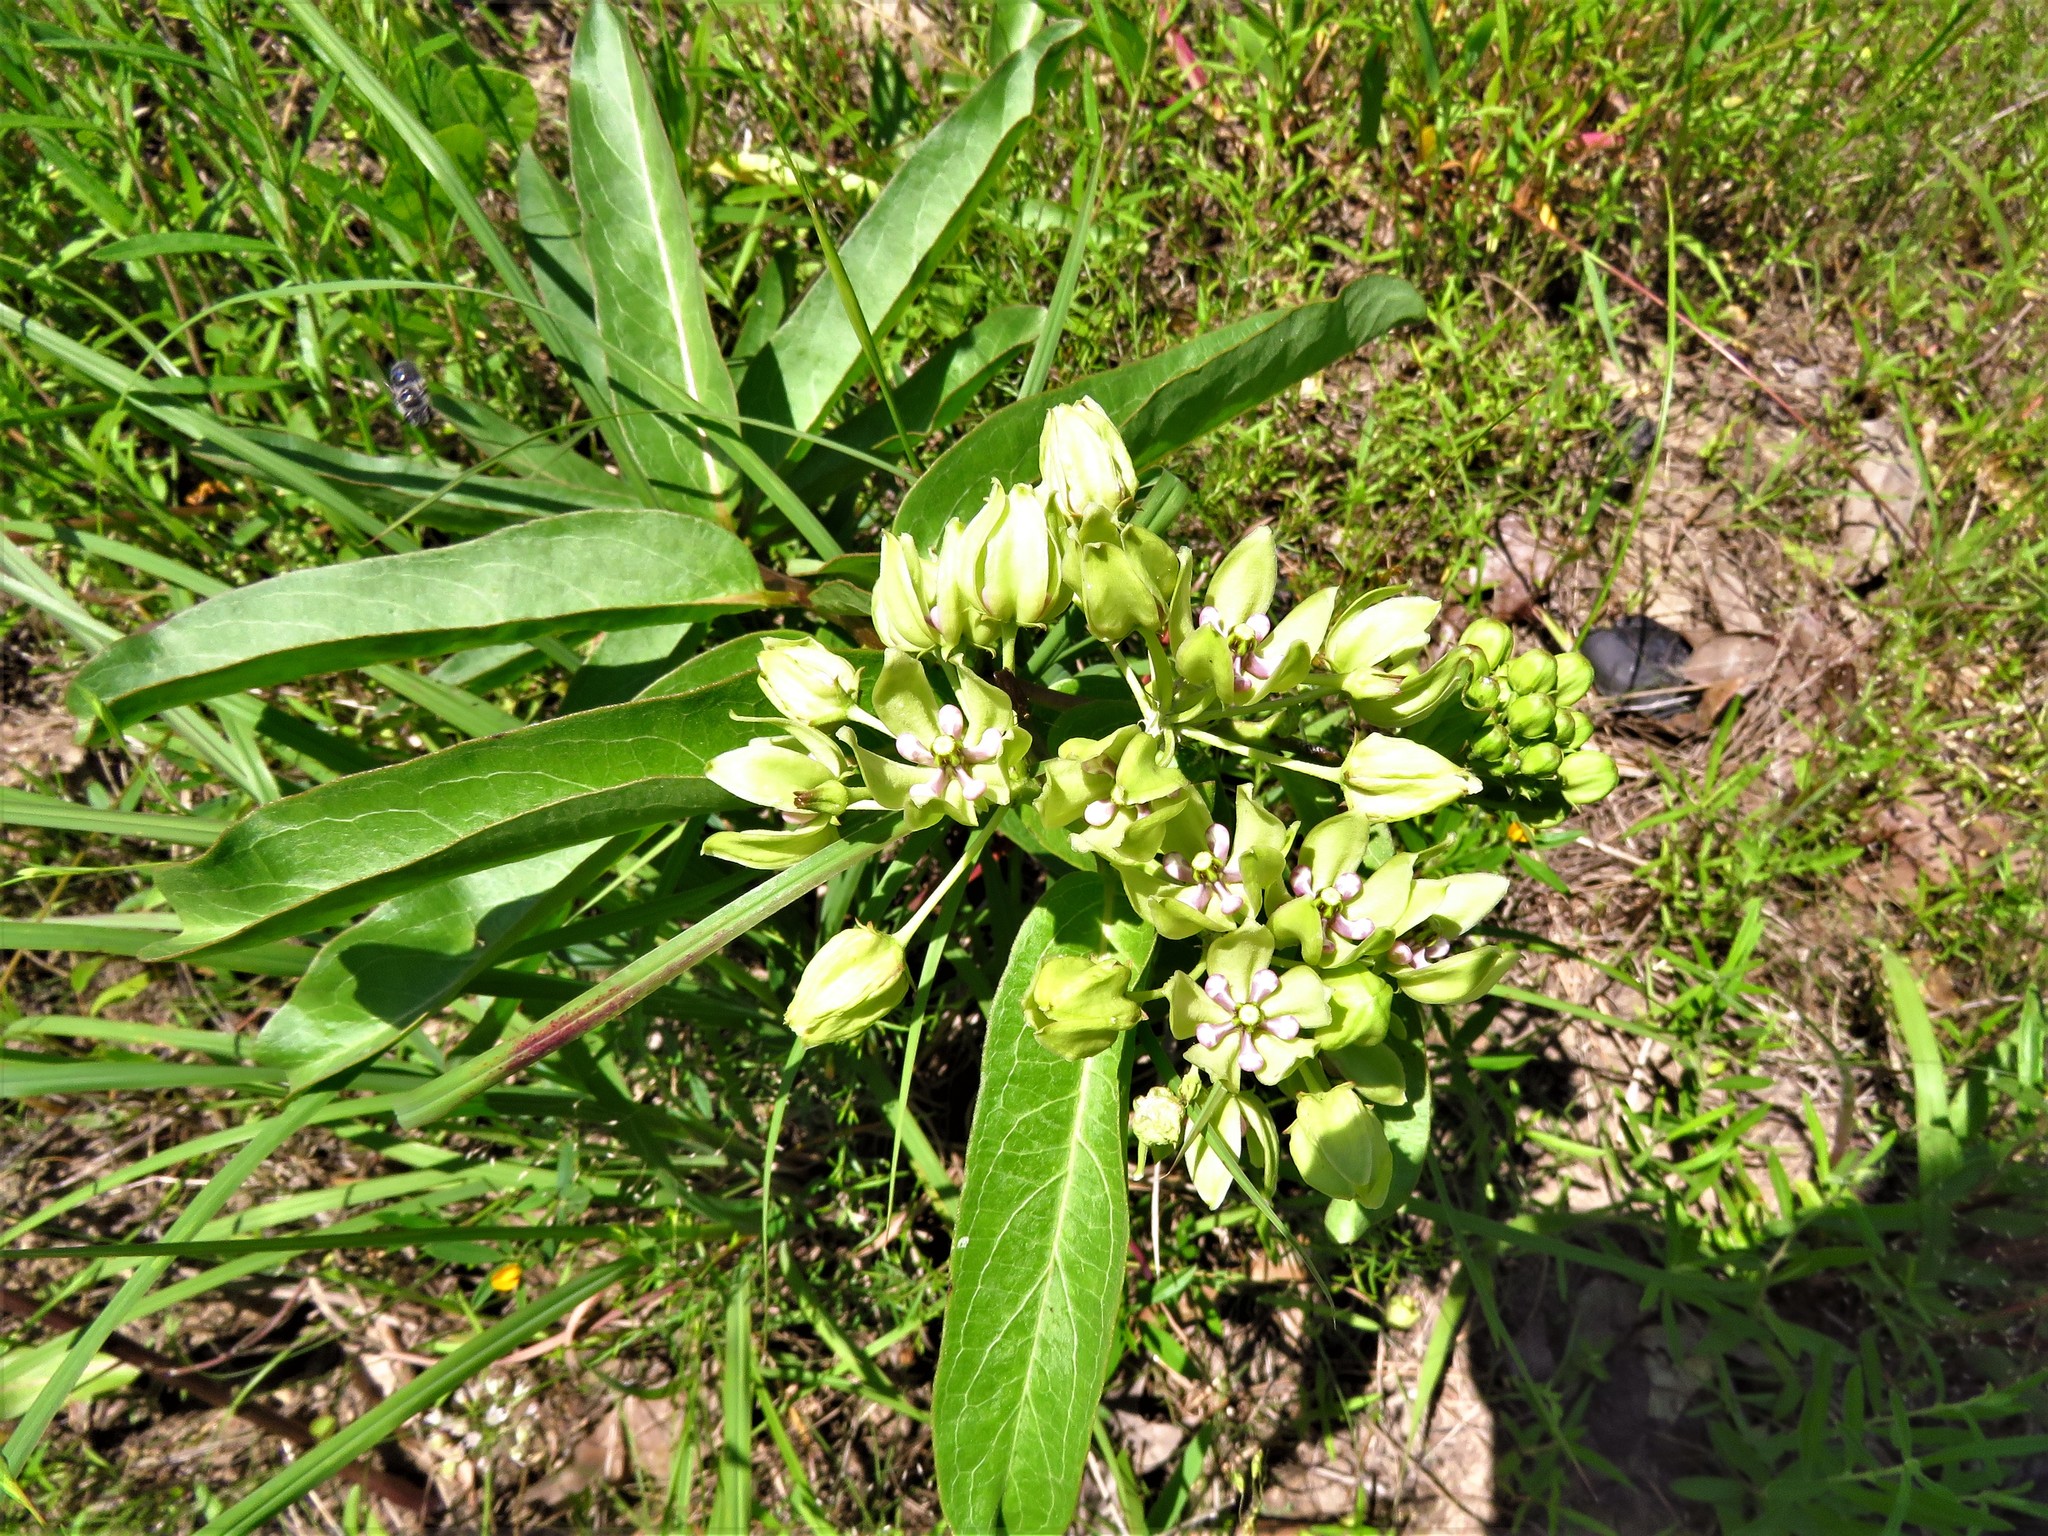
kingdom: Plantae
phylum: Tracheophyta
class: Magnoliopsida
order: Gentianales
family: Apocynaceae
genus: Asclepias
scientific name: Asclepias viridis
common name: Antelope-horns
